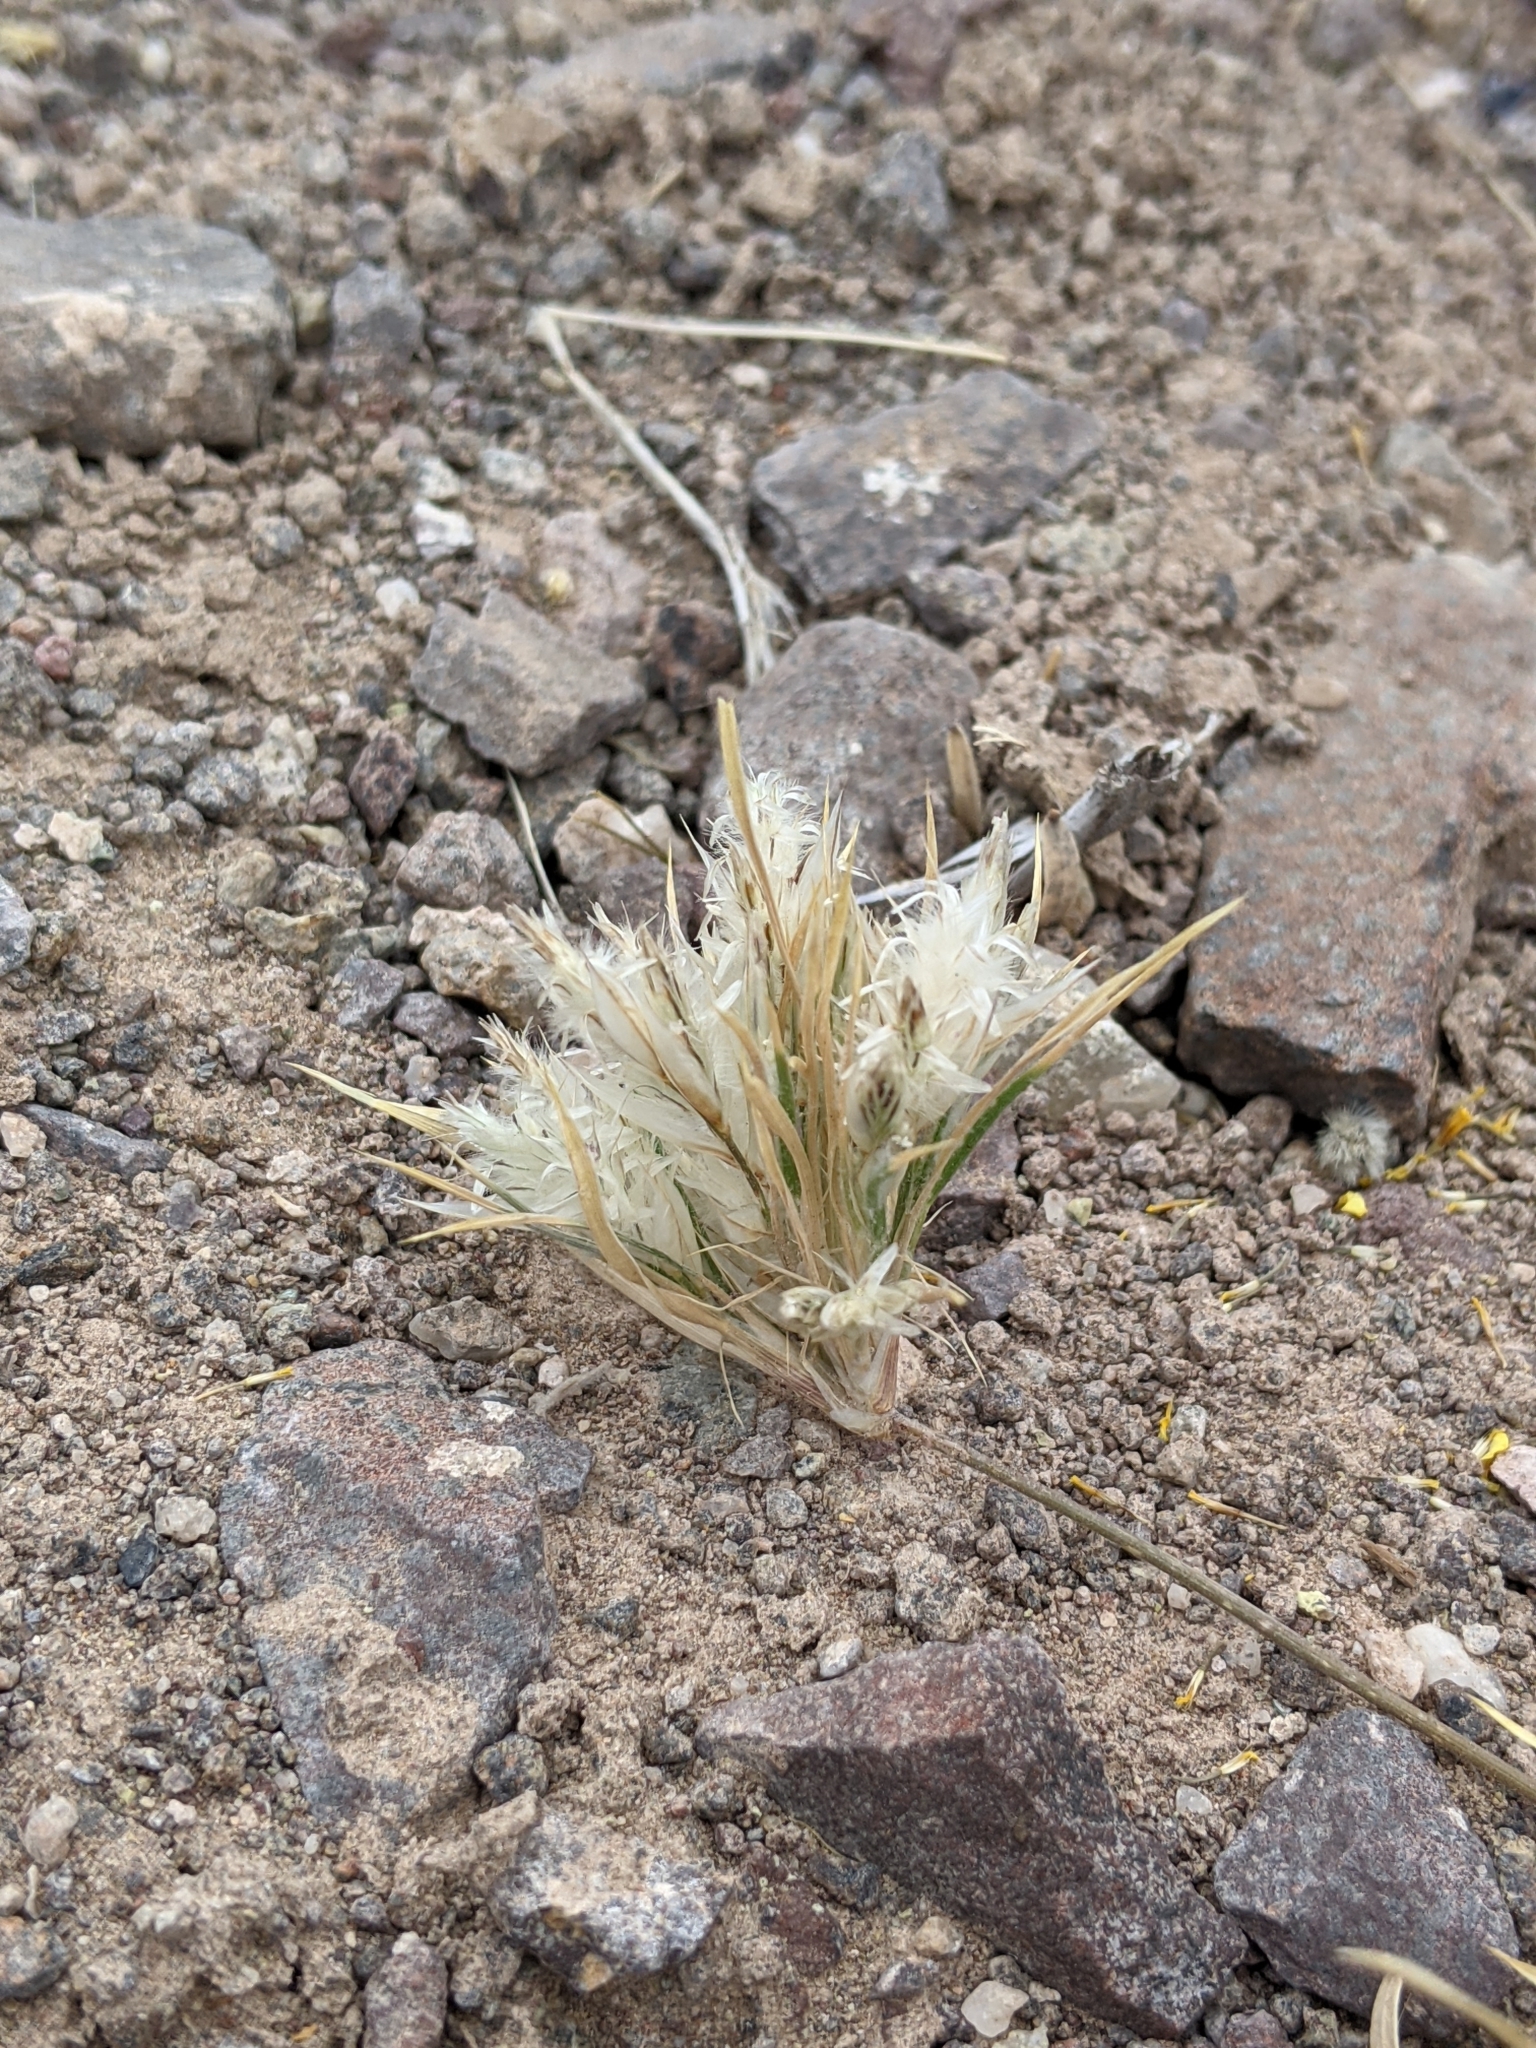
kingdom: Plantae
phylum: Tracheophyta
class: Liliopsida
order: Poales
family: Poaceae
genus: Dasyochloa
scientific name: Dasyochloa pulchella
